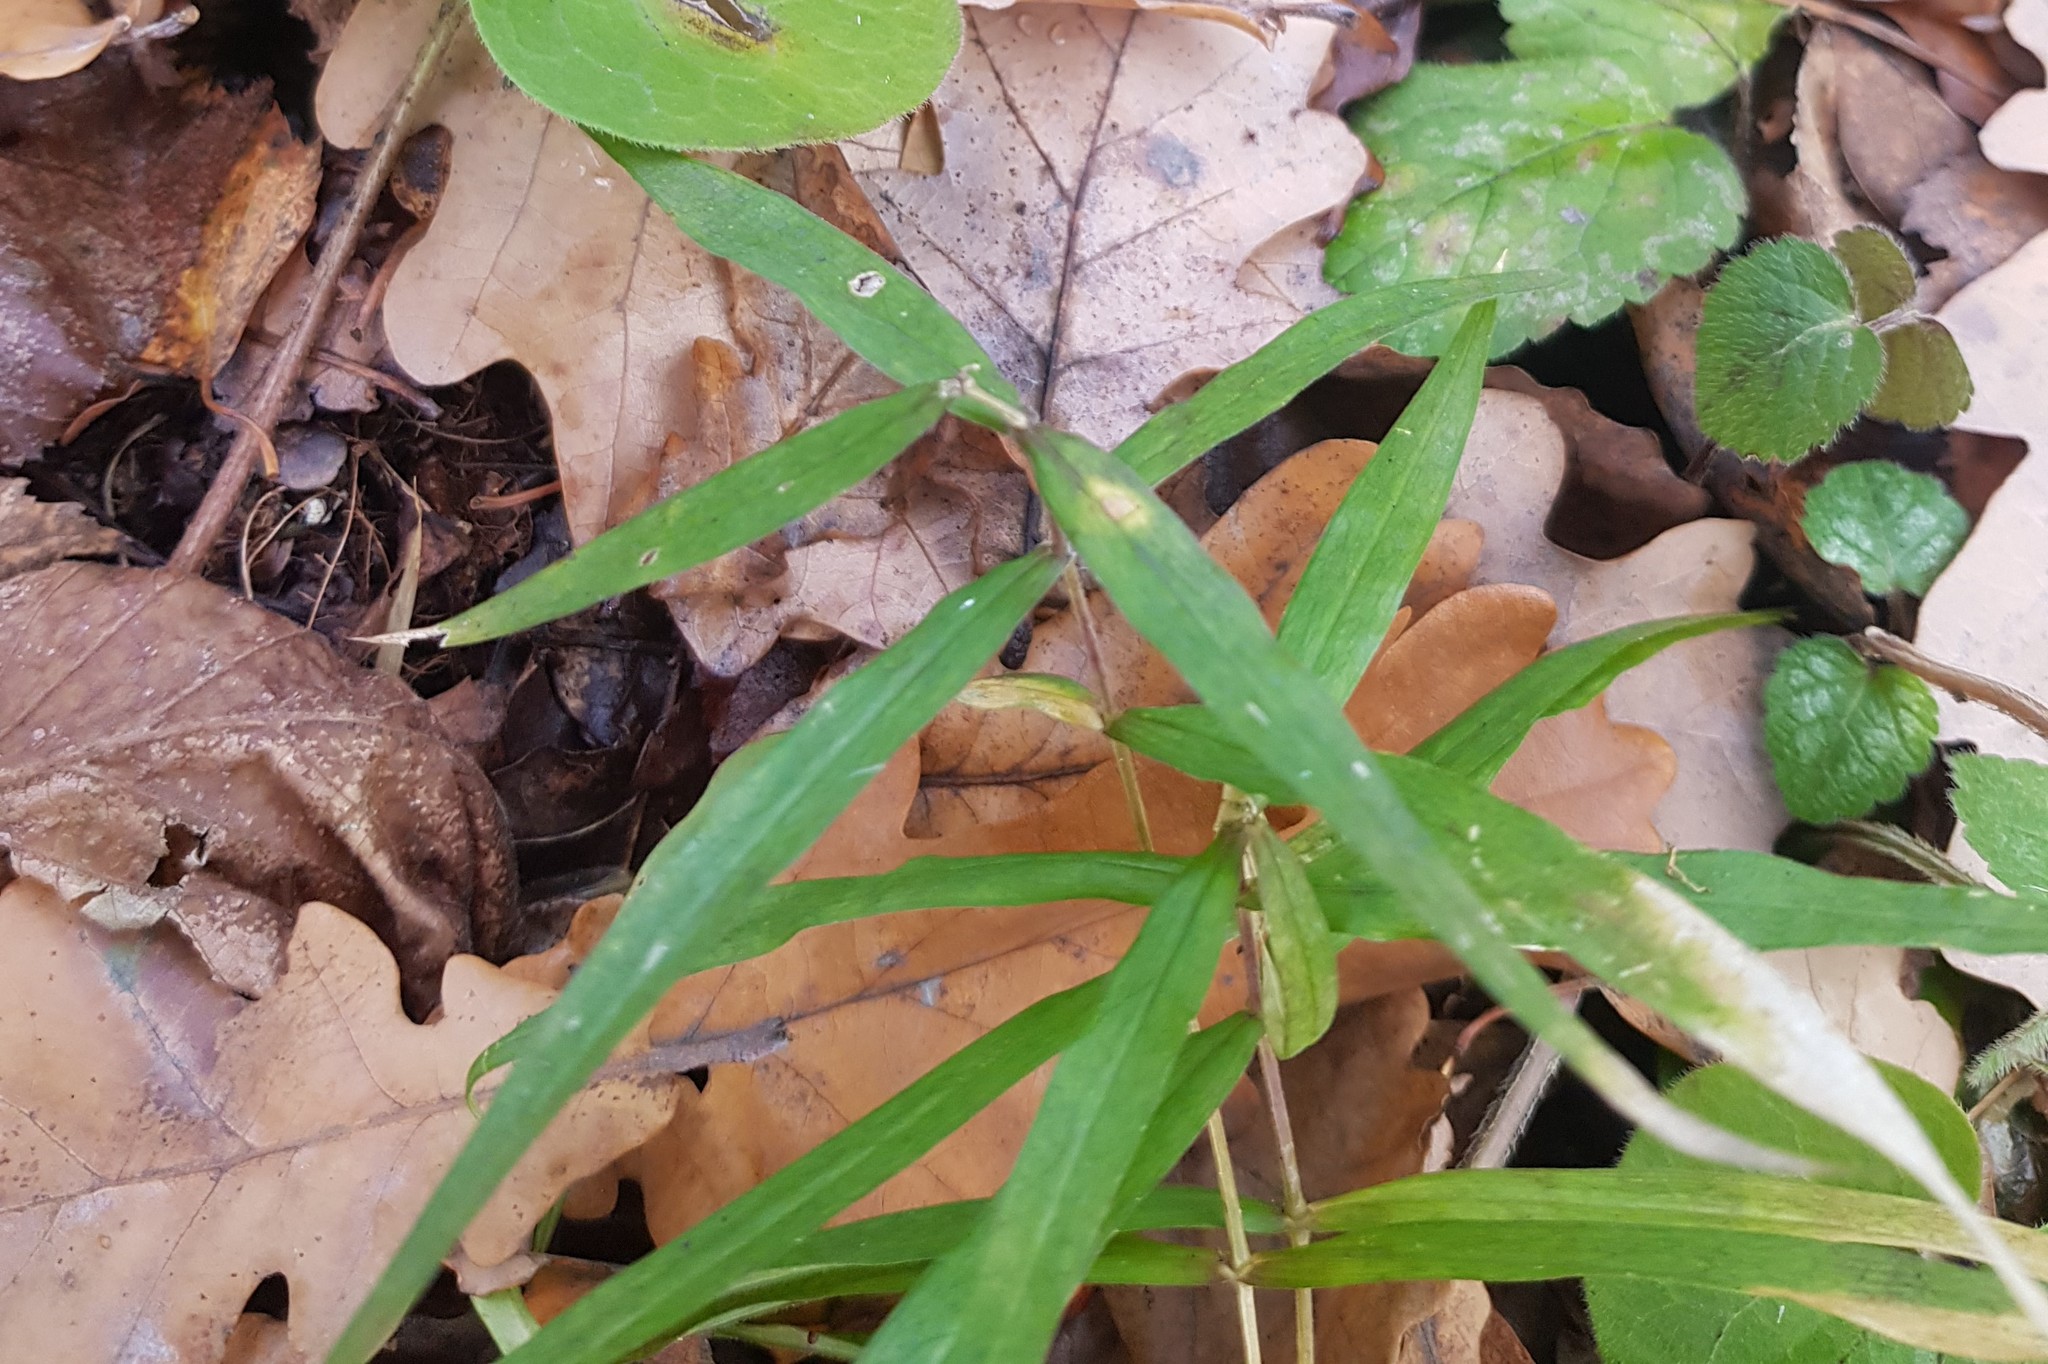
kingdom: Plantae
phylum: Tracheophyta
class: Magnoliopsida
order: Caryophyllales
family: Caryophyllaceae
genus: Rabelera
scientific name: Rabelera holostea
